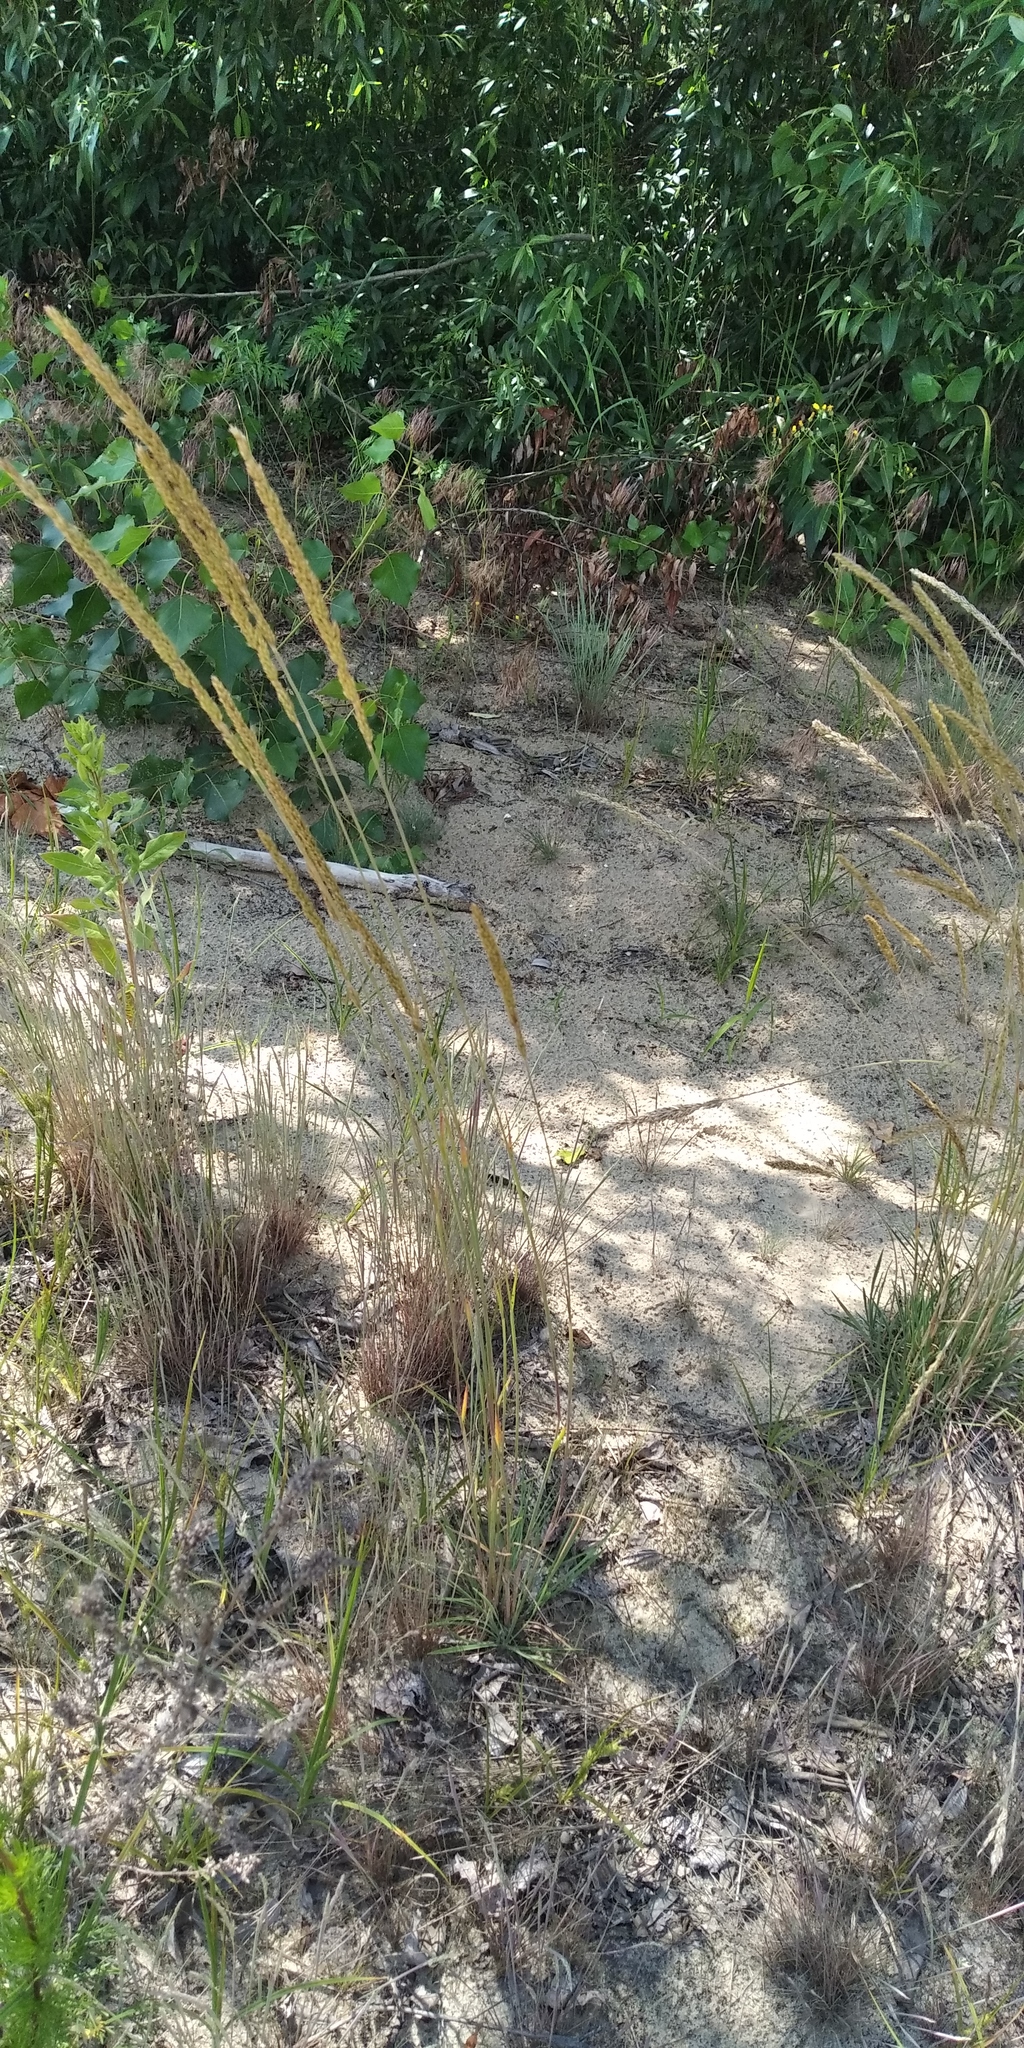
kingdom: Plantae
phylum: Tracheophyta
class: Liliopsida
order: Poales
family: Poaceae
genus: Koeleria
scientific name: Koeleria glauca
